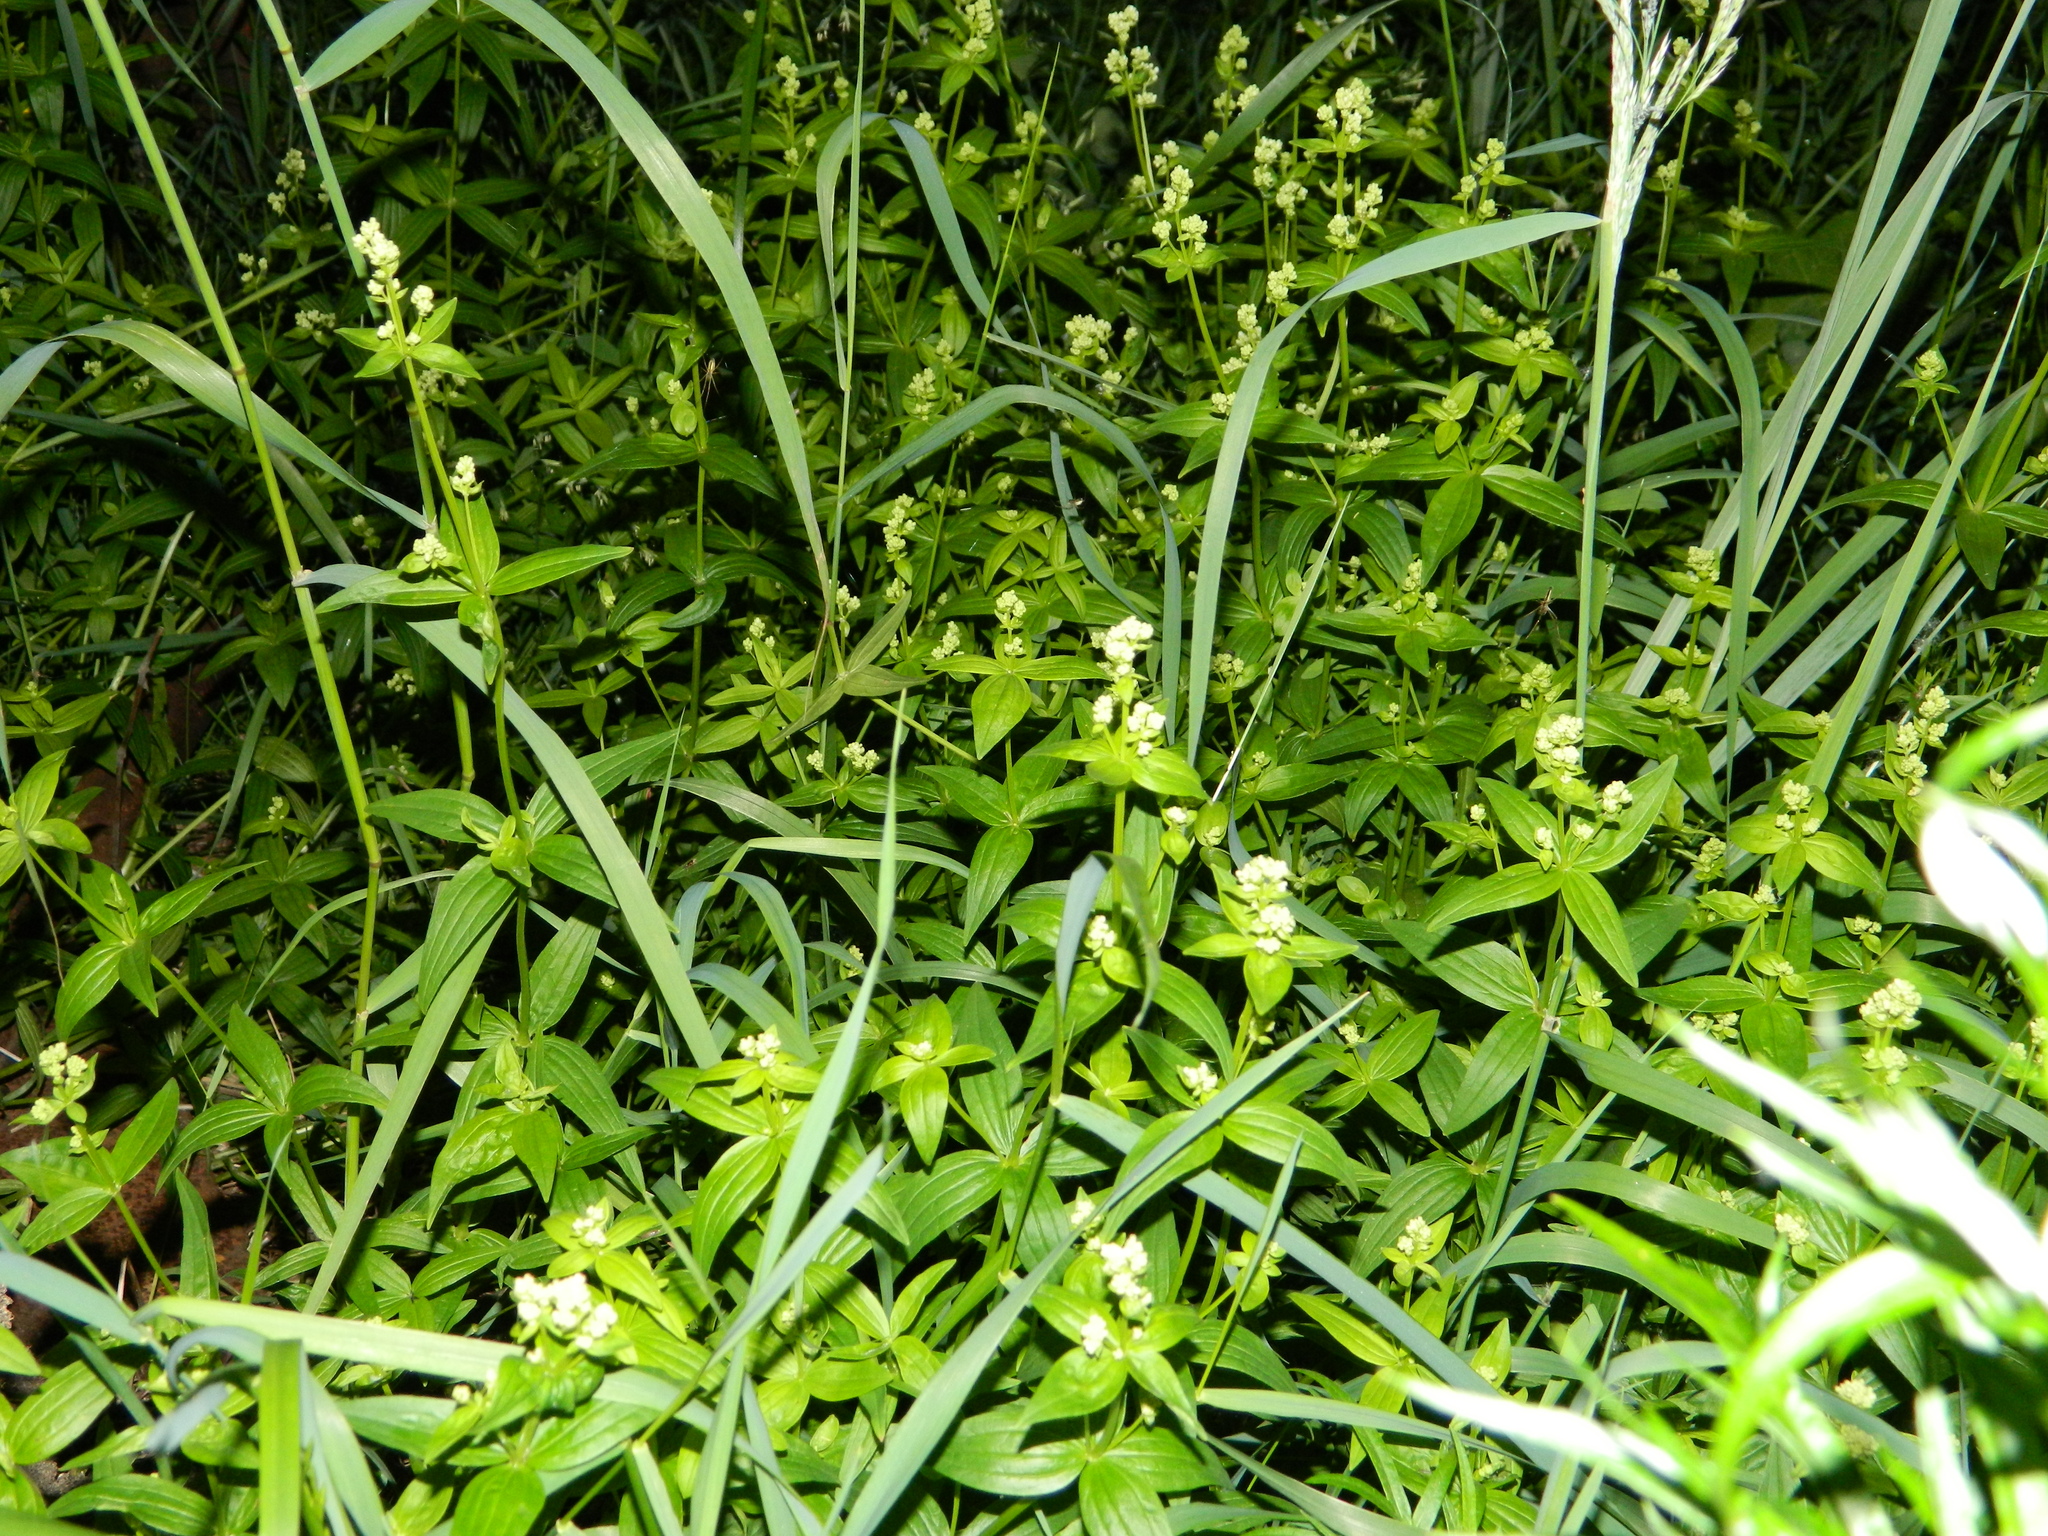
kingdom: Plantae
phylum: Tracheophyta
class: Magnoliopsida
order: Gentianales
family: Rubiaceae
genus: Galium
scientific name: Galium boreale
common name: Northern bedstraw
